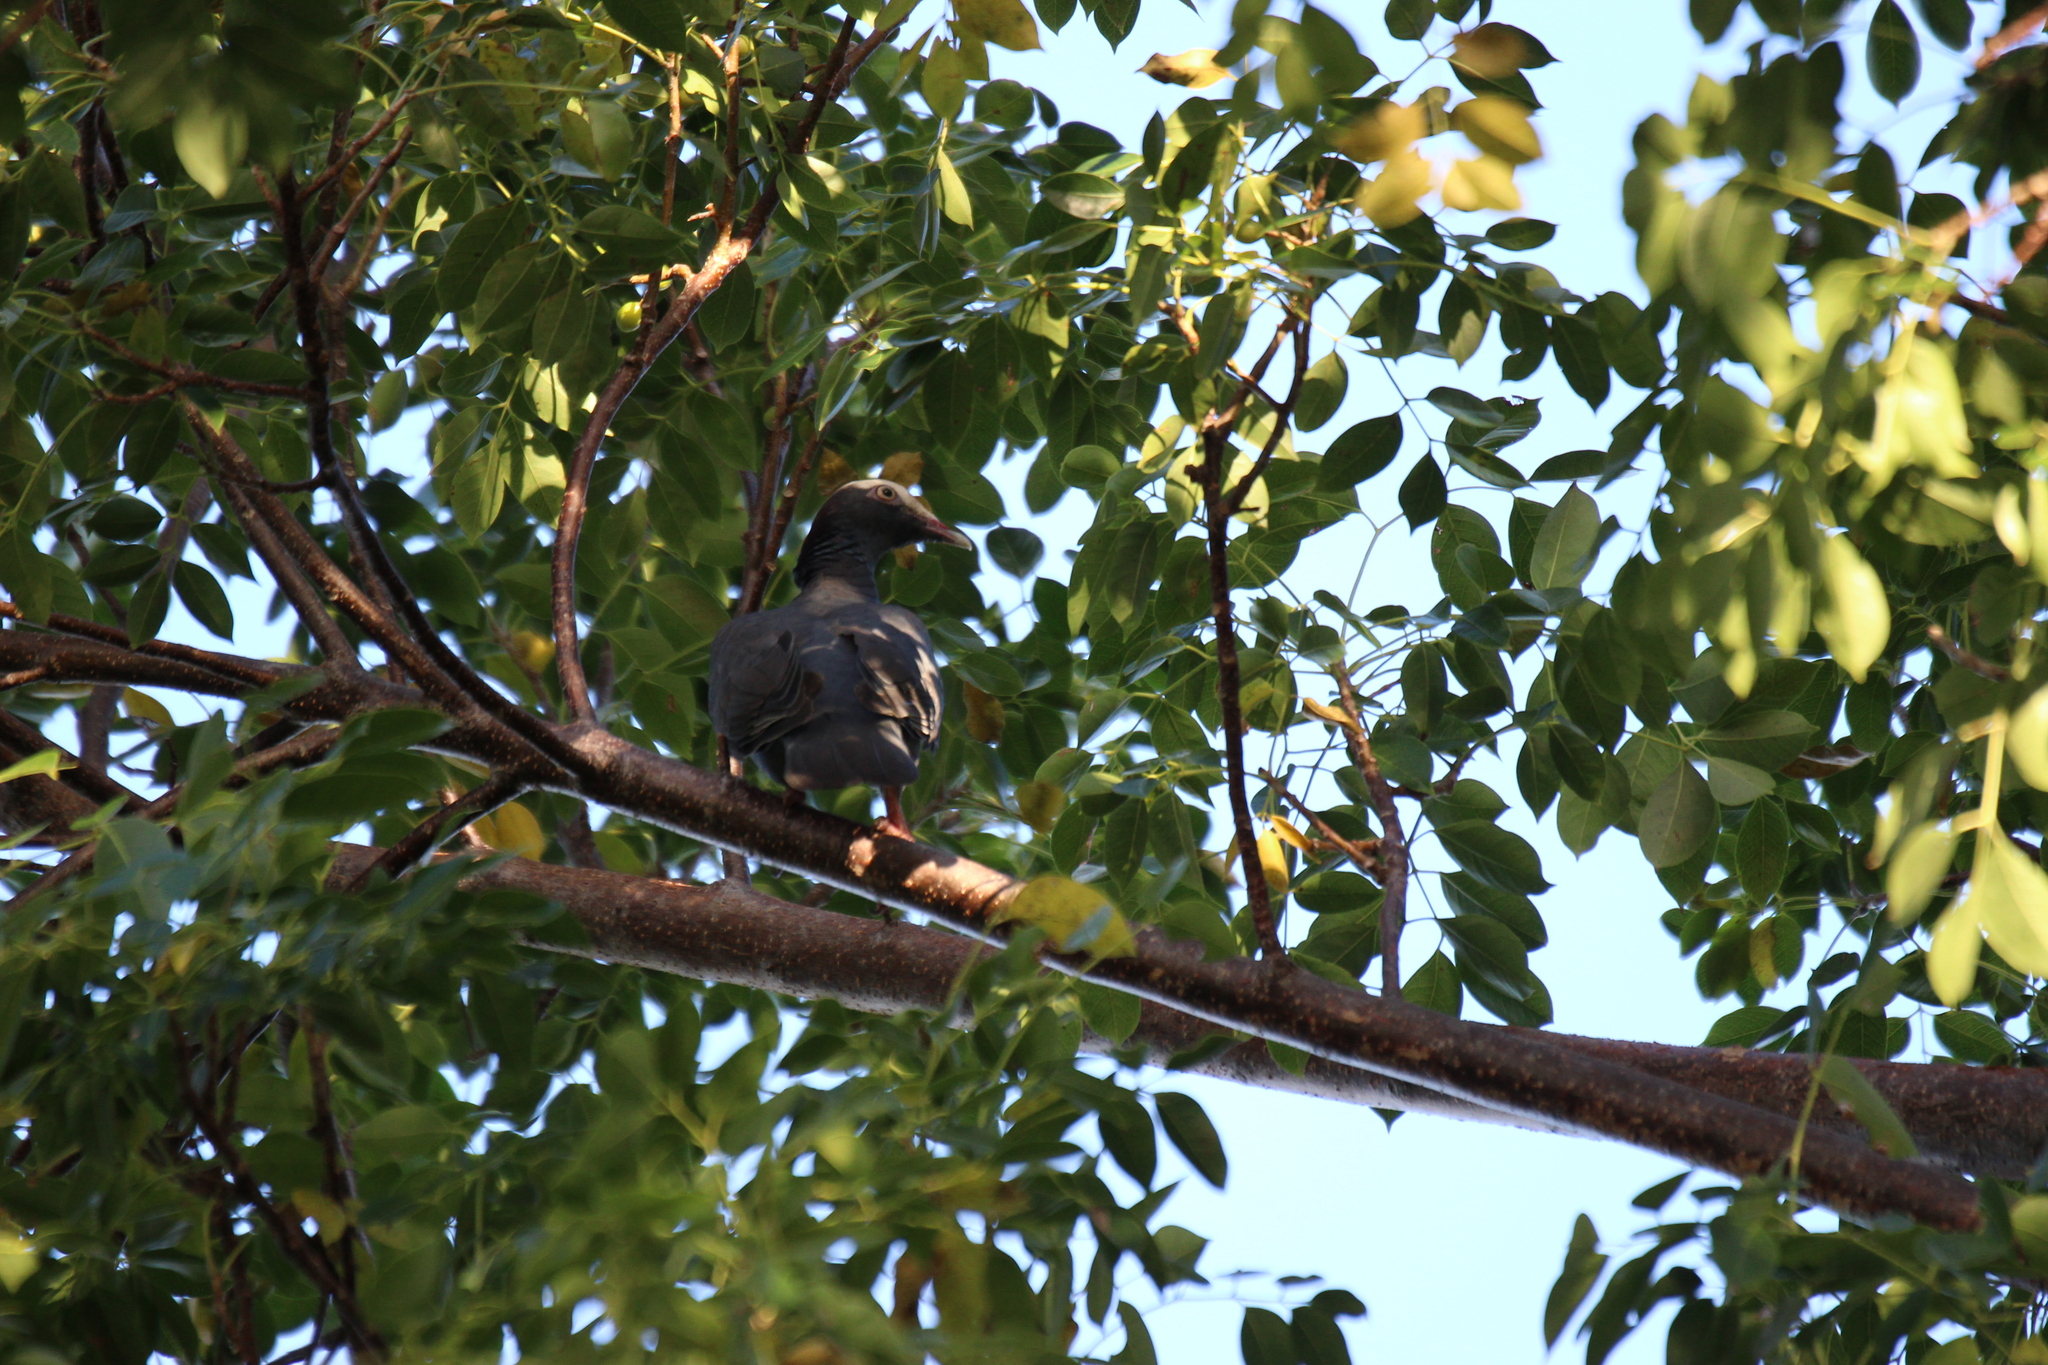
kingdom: Animalia
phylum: Chordata
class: Aves
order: Columbiformes
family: Columbidae
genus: Patagioenas
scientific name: Patagioenas leucocephala
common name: White-crowned pigeon
